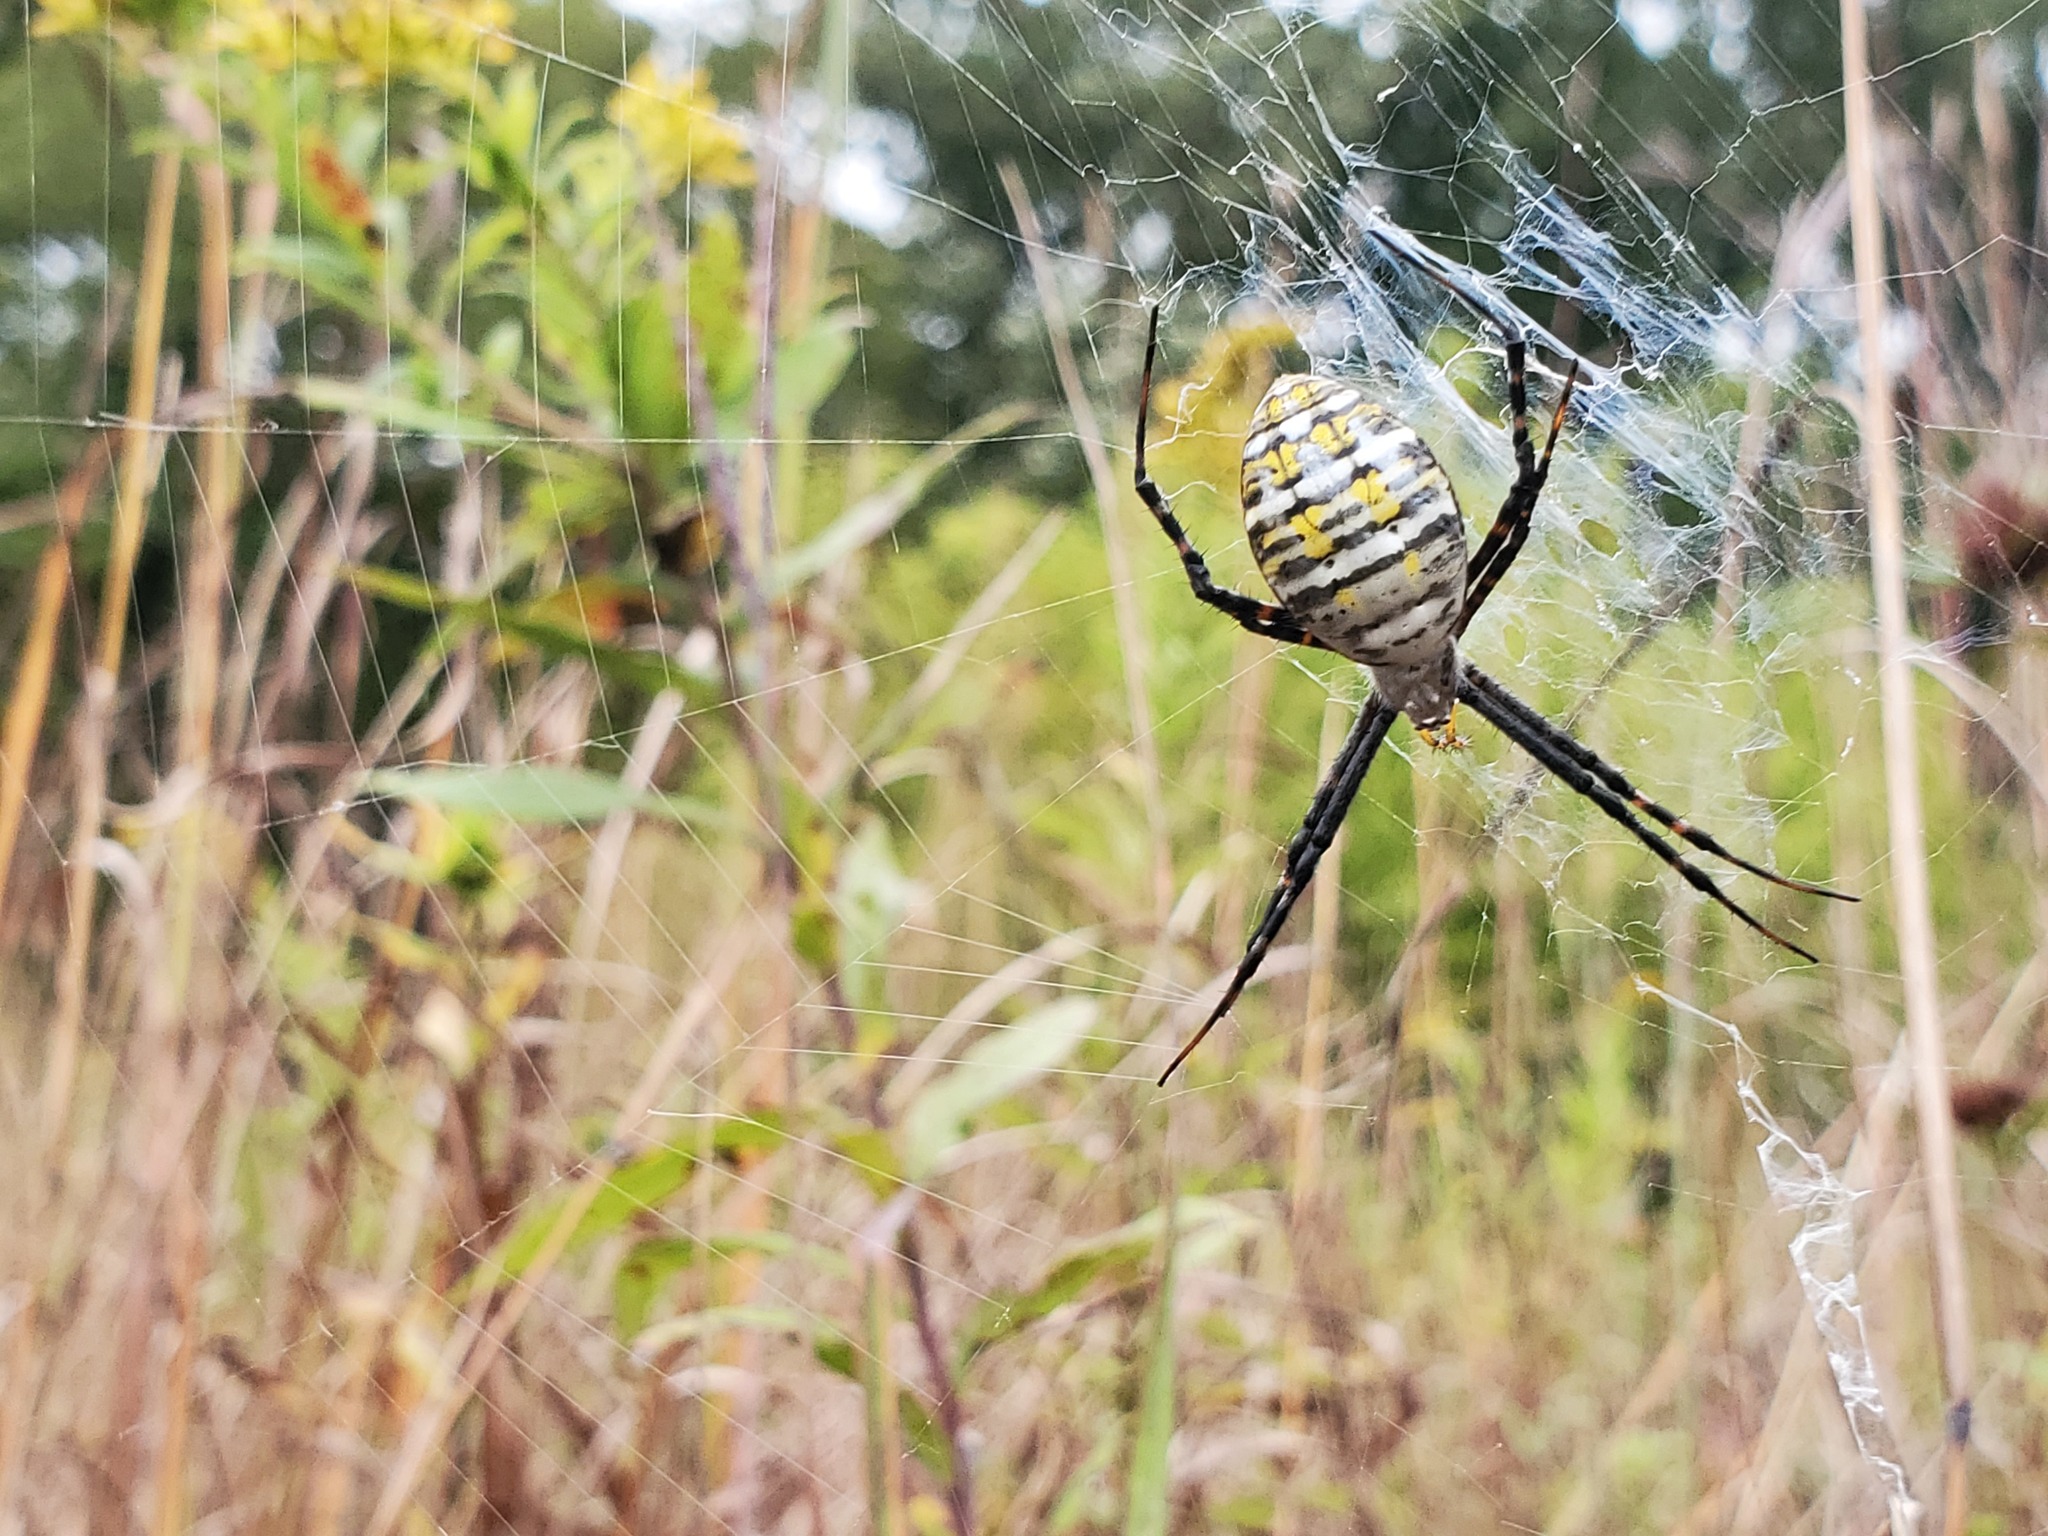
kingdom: Animalia
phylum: Arthropoda
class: Arachnida
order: Araneae
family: Araneidae
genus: Argiope
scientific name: Argiope trifasciata
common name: Banded garden spider
